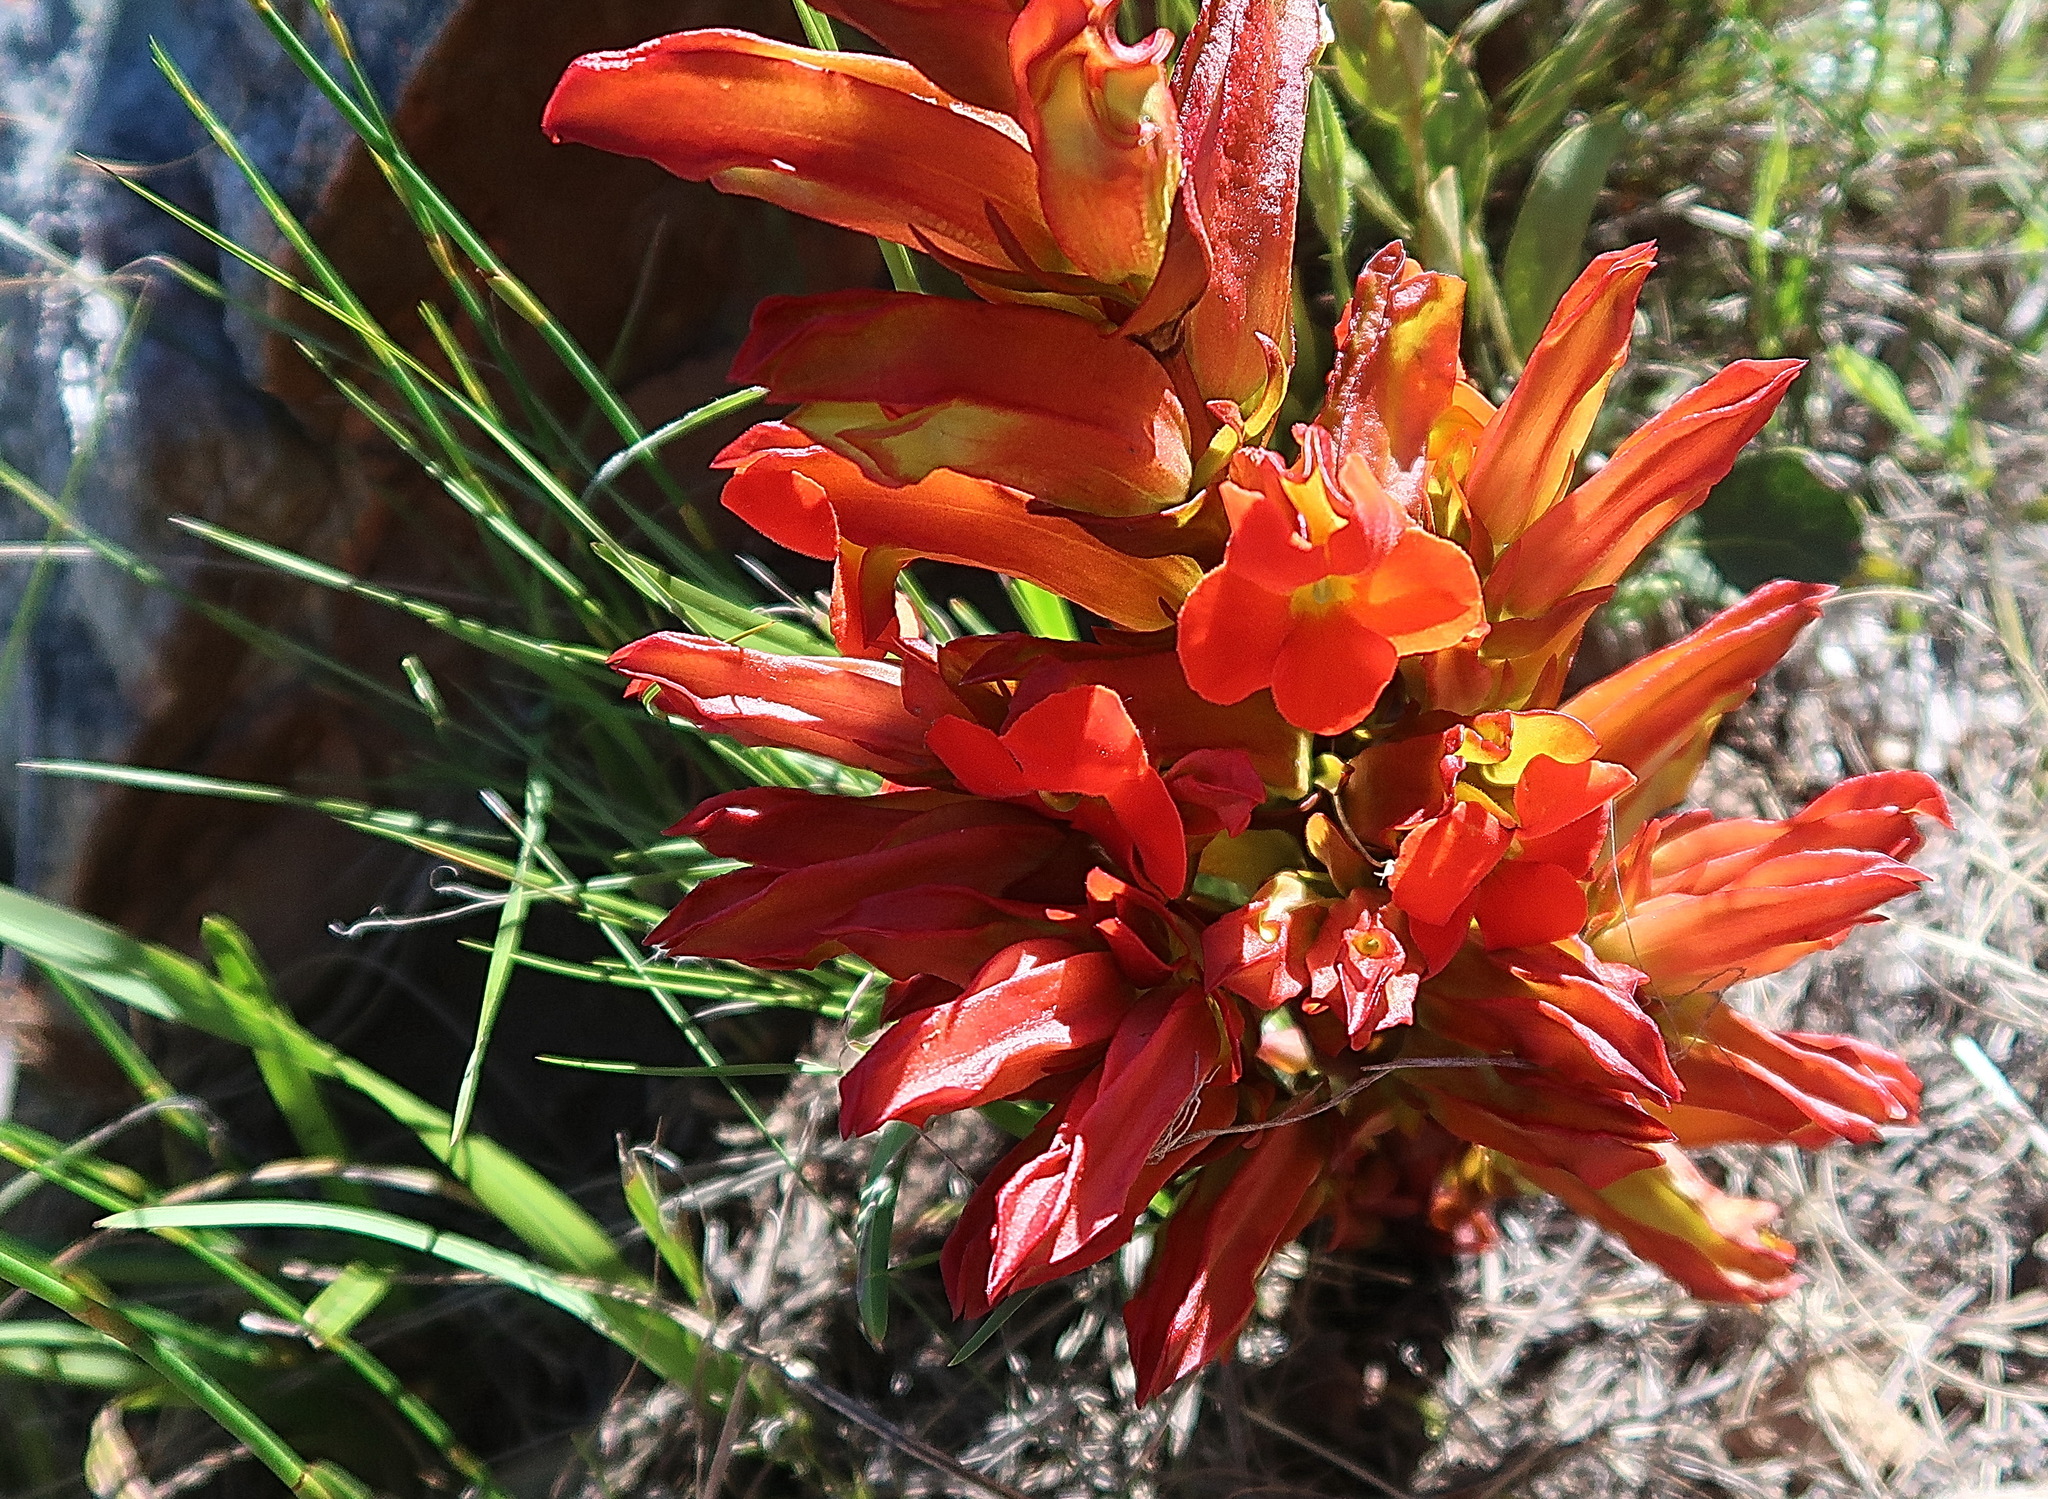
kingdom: Plantae
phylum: Tracheophyta
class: Magnoliopsida
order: Lamiales
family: Orobanchaceae
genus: Harveya
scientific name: Harveya bolusii
